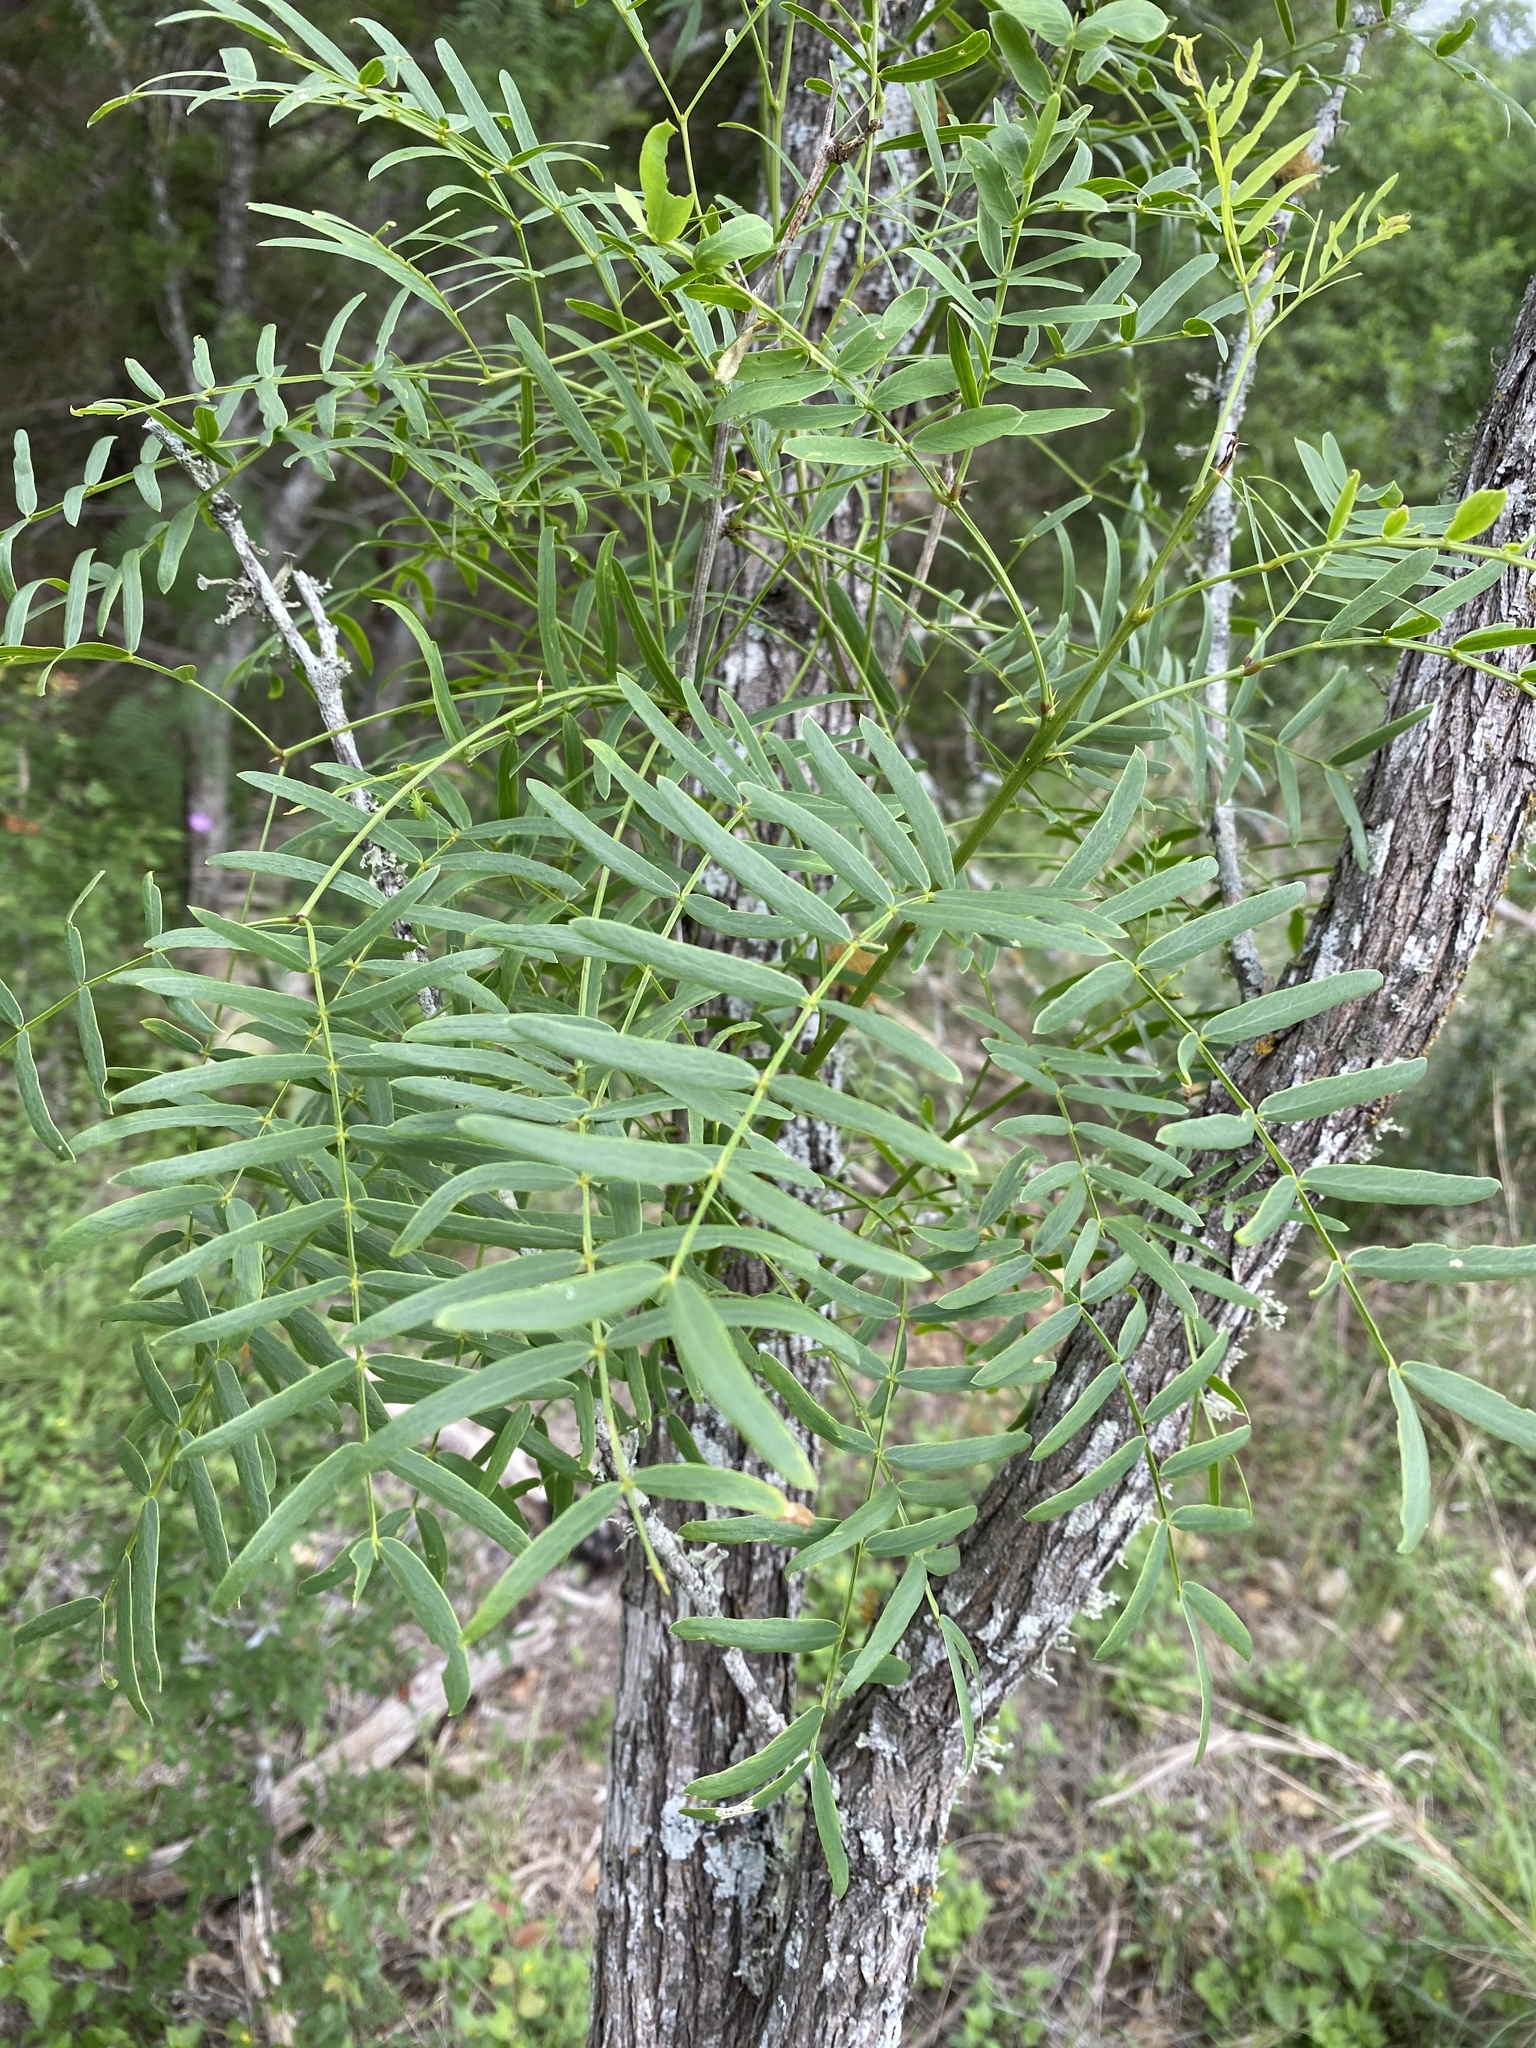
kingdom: Plantae
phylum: Tracheophyta
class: Magnoliopsida
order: Fabales
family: Fabaceae
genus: Prosopis
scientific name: Prosopis glandulosa
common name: Honey mesquite
